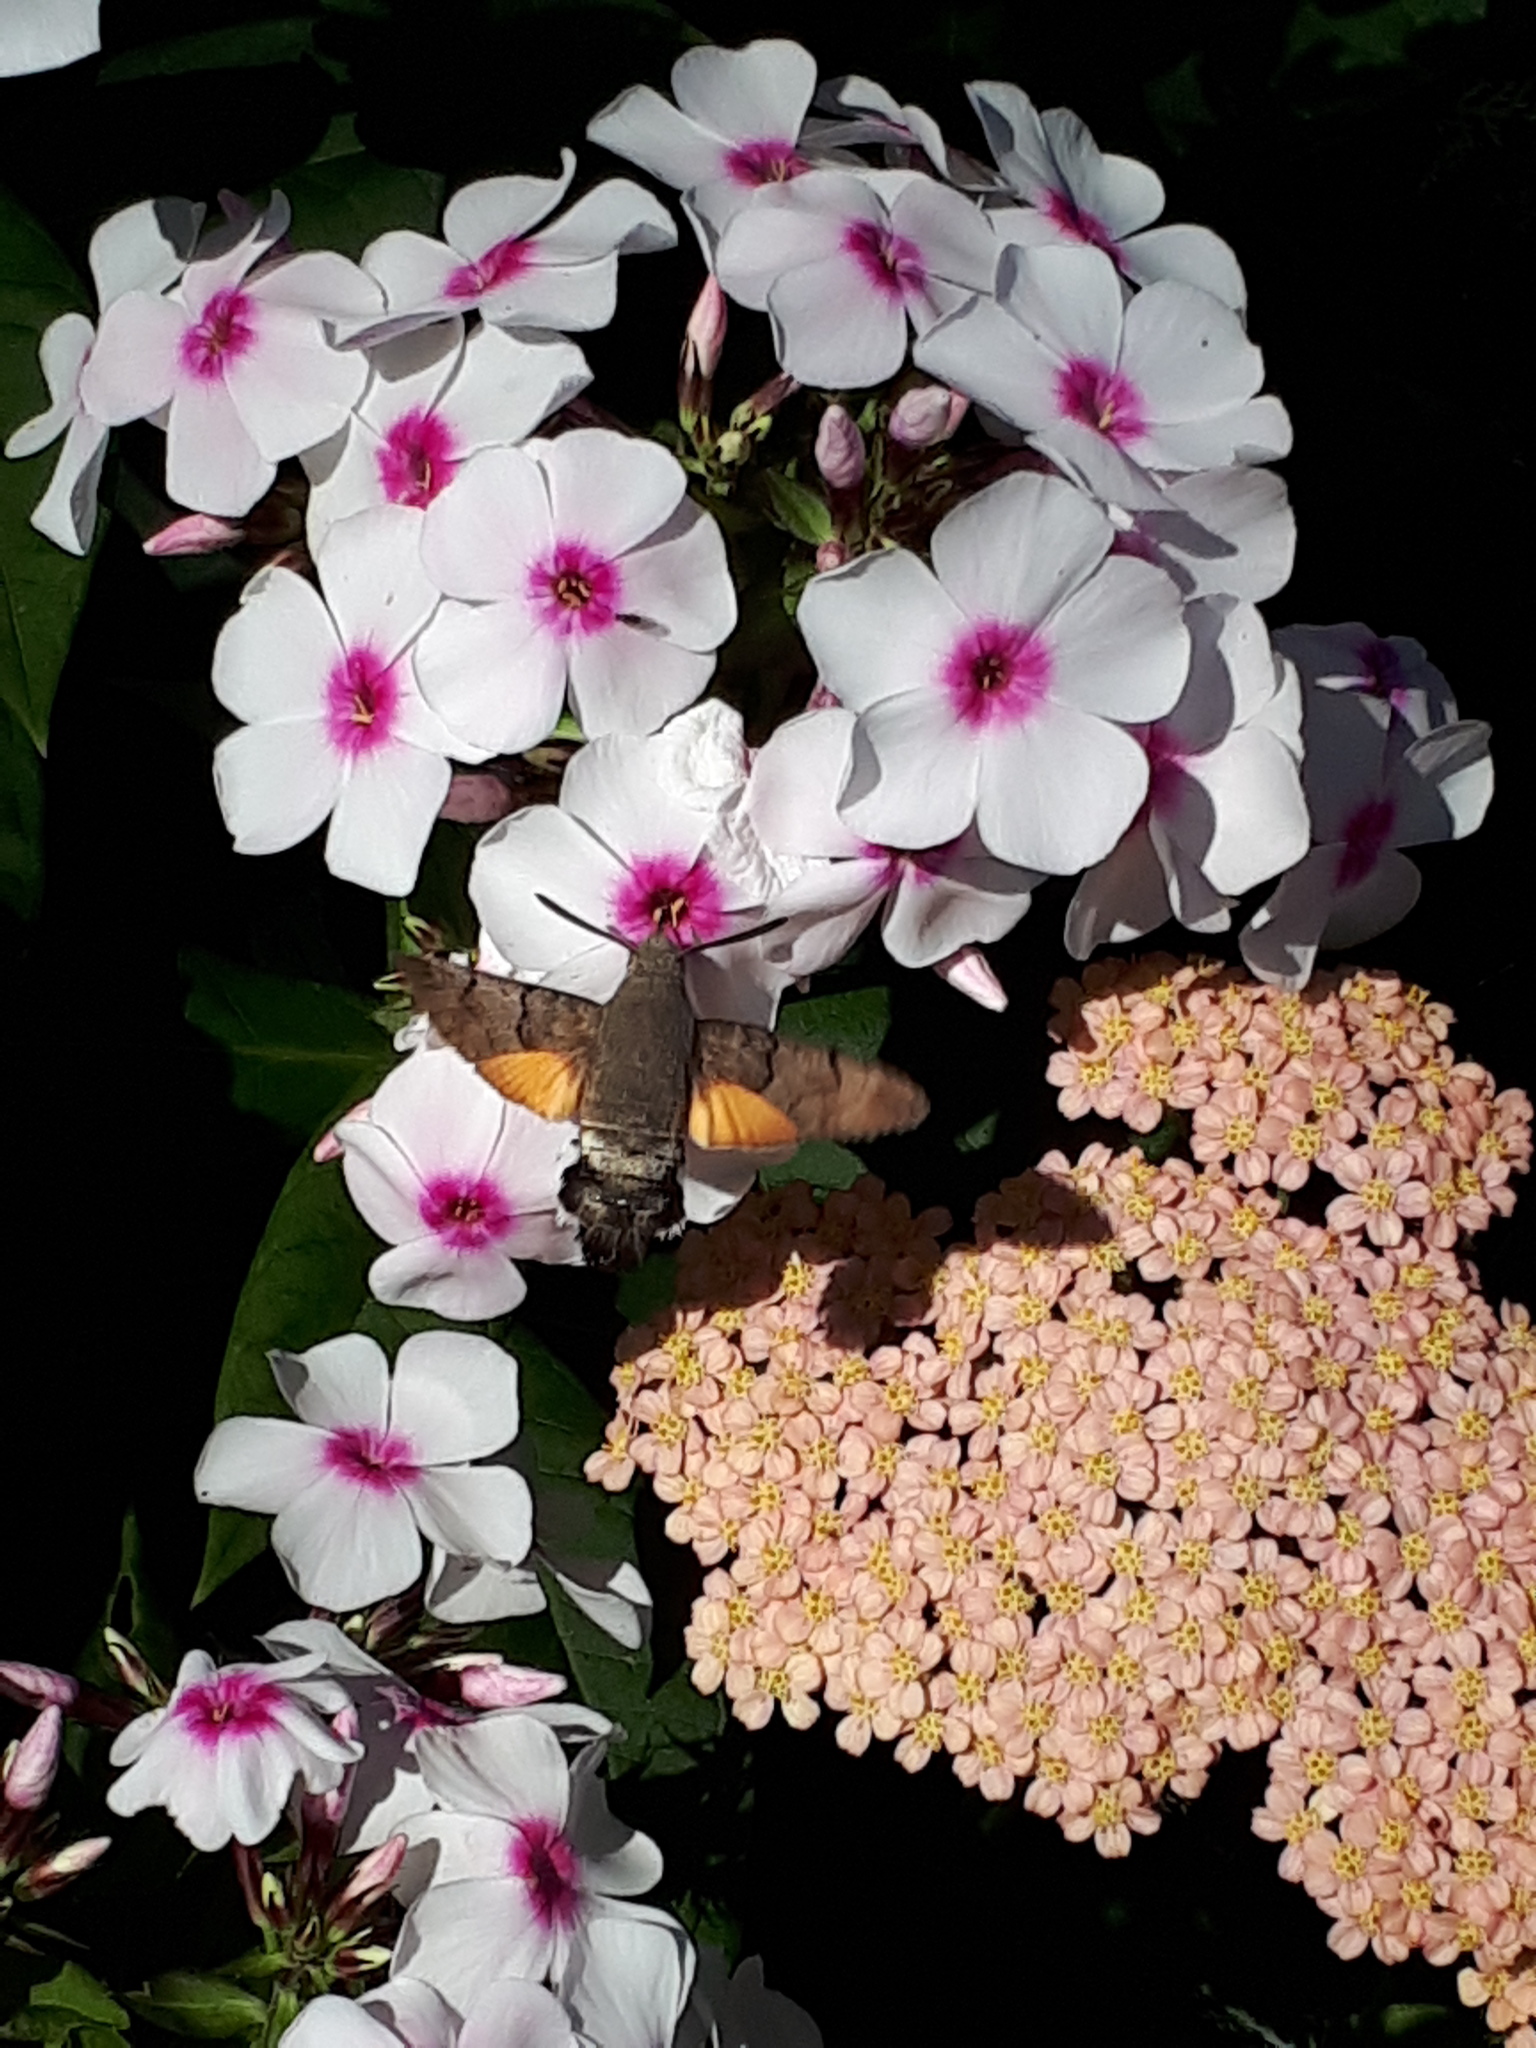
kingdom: Animalia
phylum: Arthropoda
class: Insecta
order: Lepidoptera
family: Sphingidae
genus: Macroglossum
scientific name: Macroglossum stellatarum
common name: Humming-bird hawk-moth
